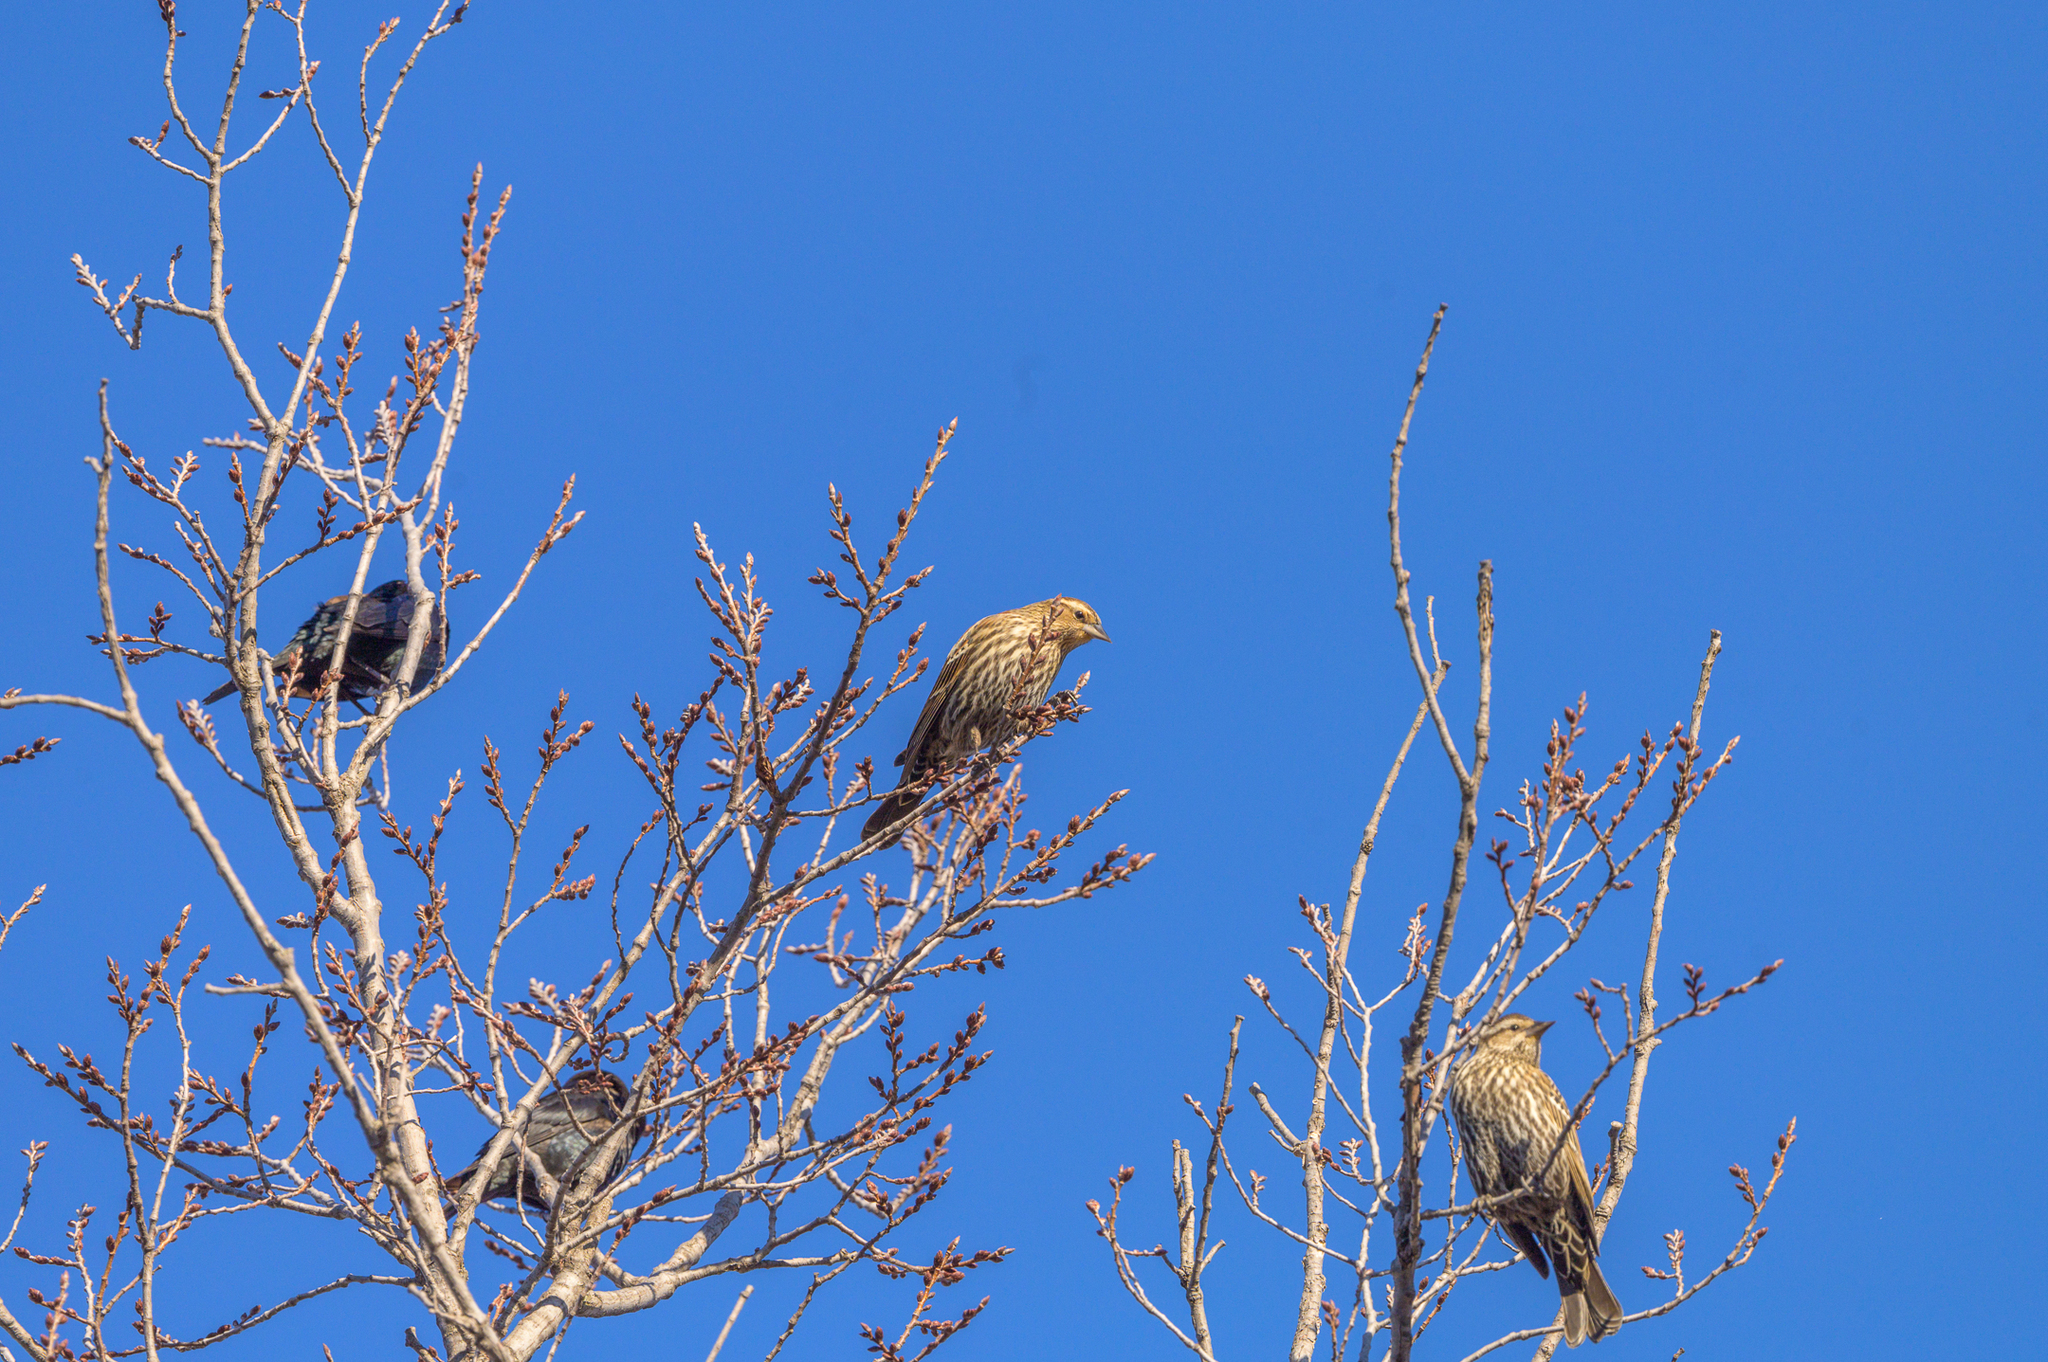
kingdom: Animalia
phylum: Chordata
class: Aves
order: Passeriformes
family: Icteridae
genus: Agelaius
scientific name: Agelaius phoeniceus
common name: Red-winged blackbird
